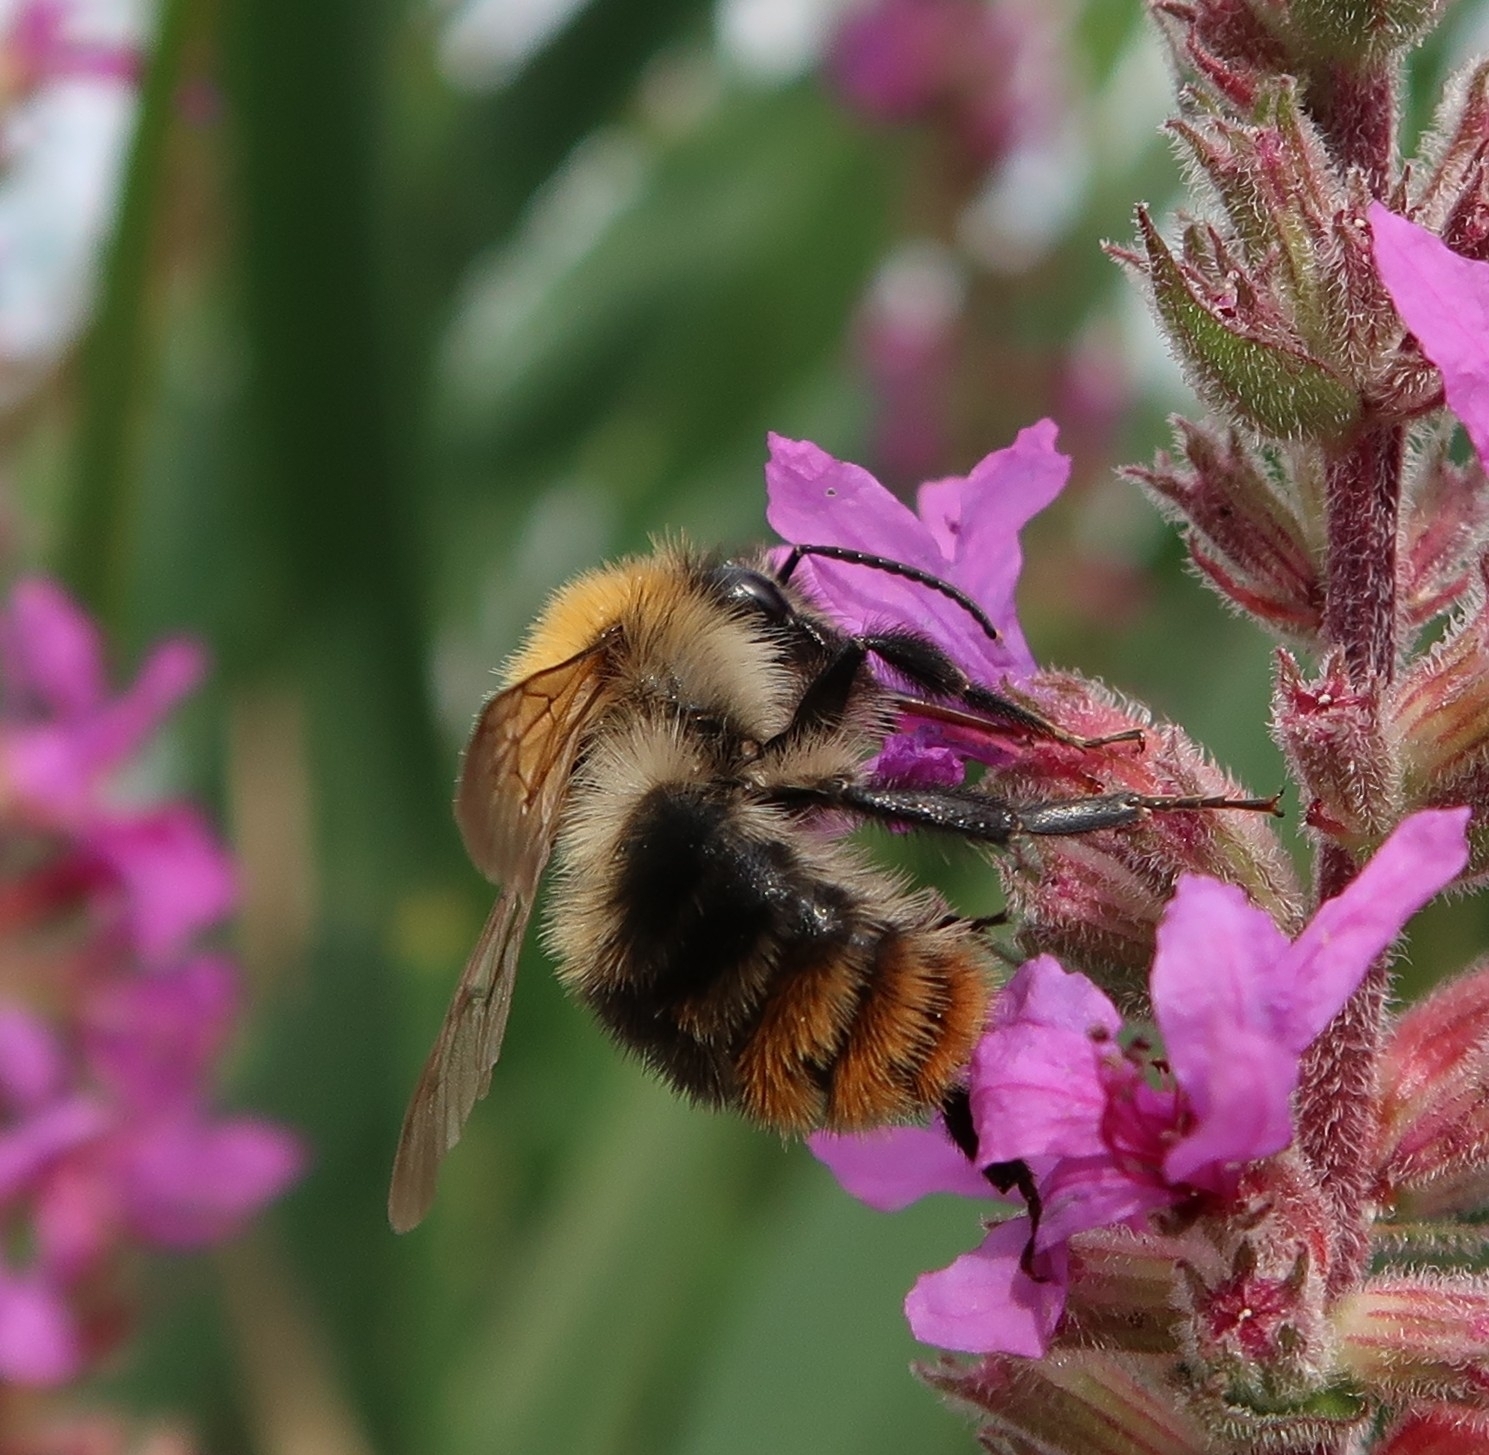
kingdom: Animalia
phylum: Arthropoda
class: Insecta
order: Hymenoptera
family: Apidae
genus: Bombus
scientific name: Bombus pascuorum
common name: Common carder bee
